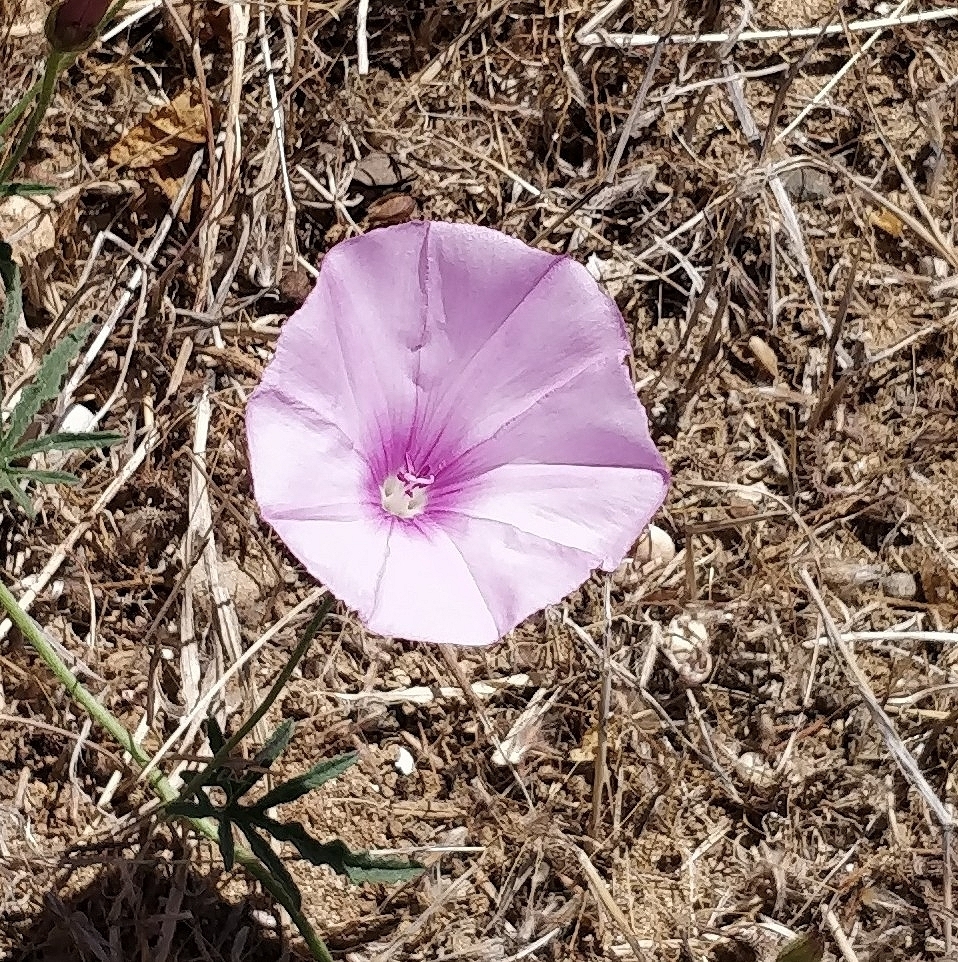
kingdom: Plantae
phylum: Tracheophyta
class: Magnoliopsida
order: Solanales
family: Convolvulaceae
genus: Convolvulus
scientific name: Convolvulus althaeoides
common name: Mallow bindweed
